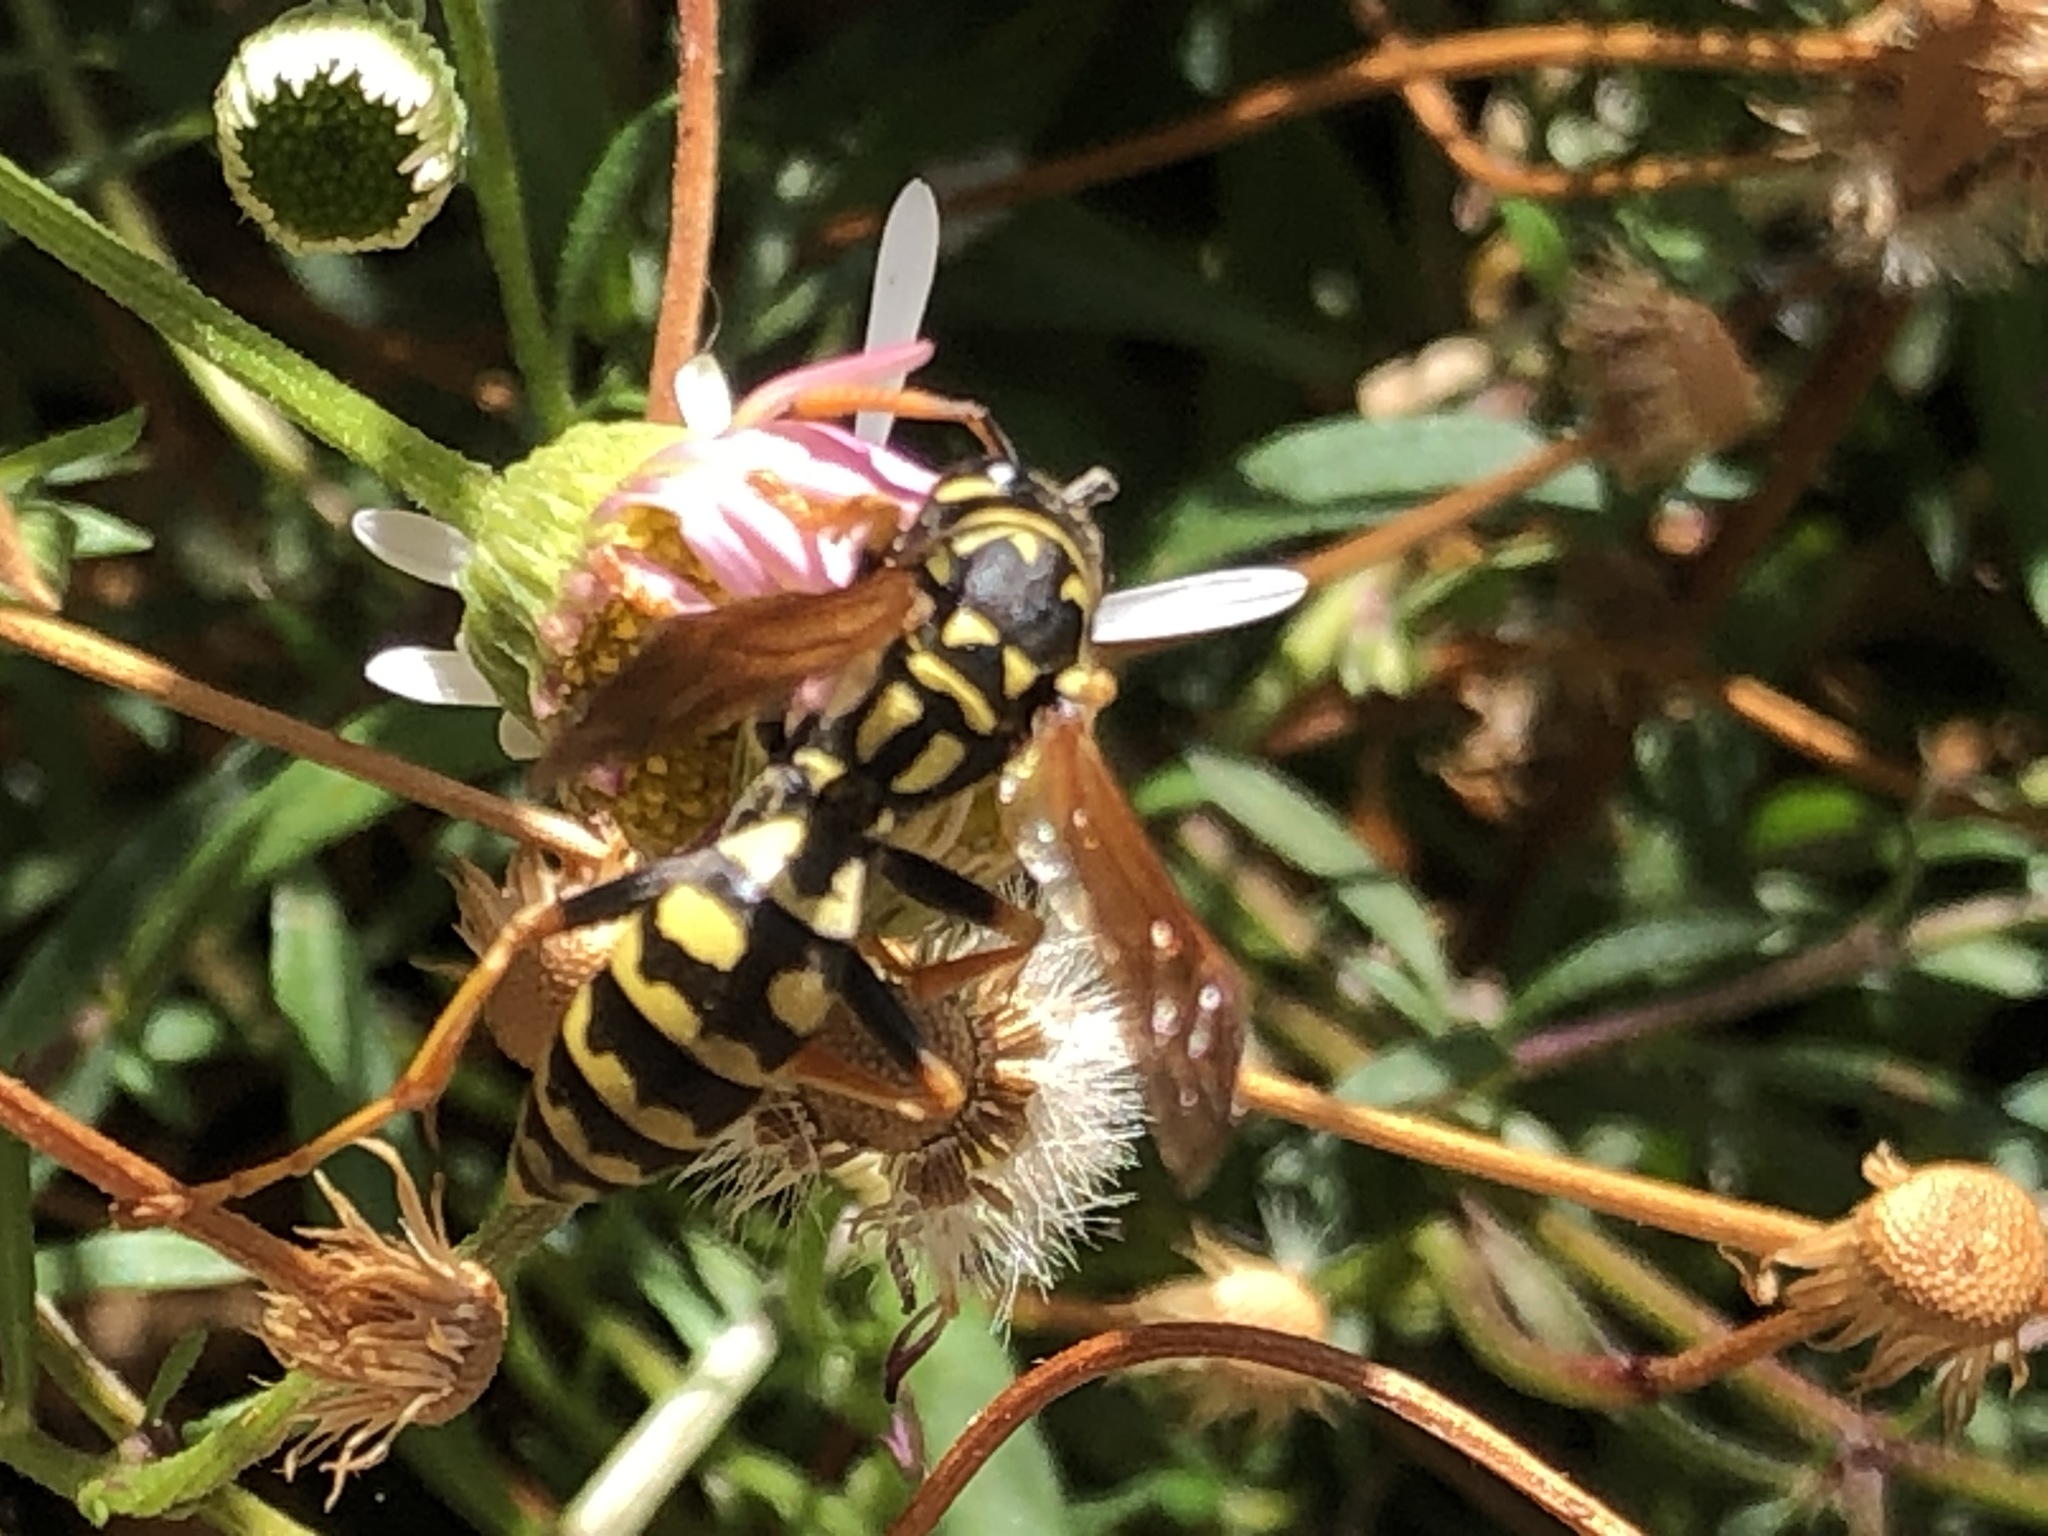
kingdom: Animalia
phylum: Arthropoda
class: Insecta
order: Hymenoptera
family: Eumenidae
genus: Polistes
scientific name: Polistes dominula
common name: Paper wasp
